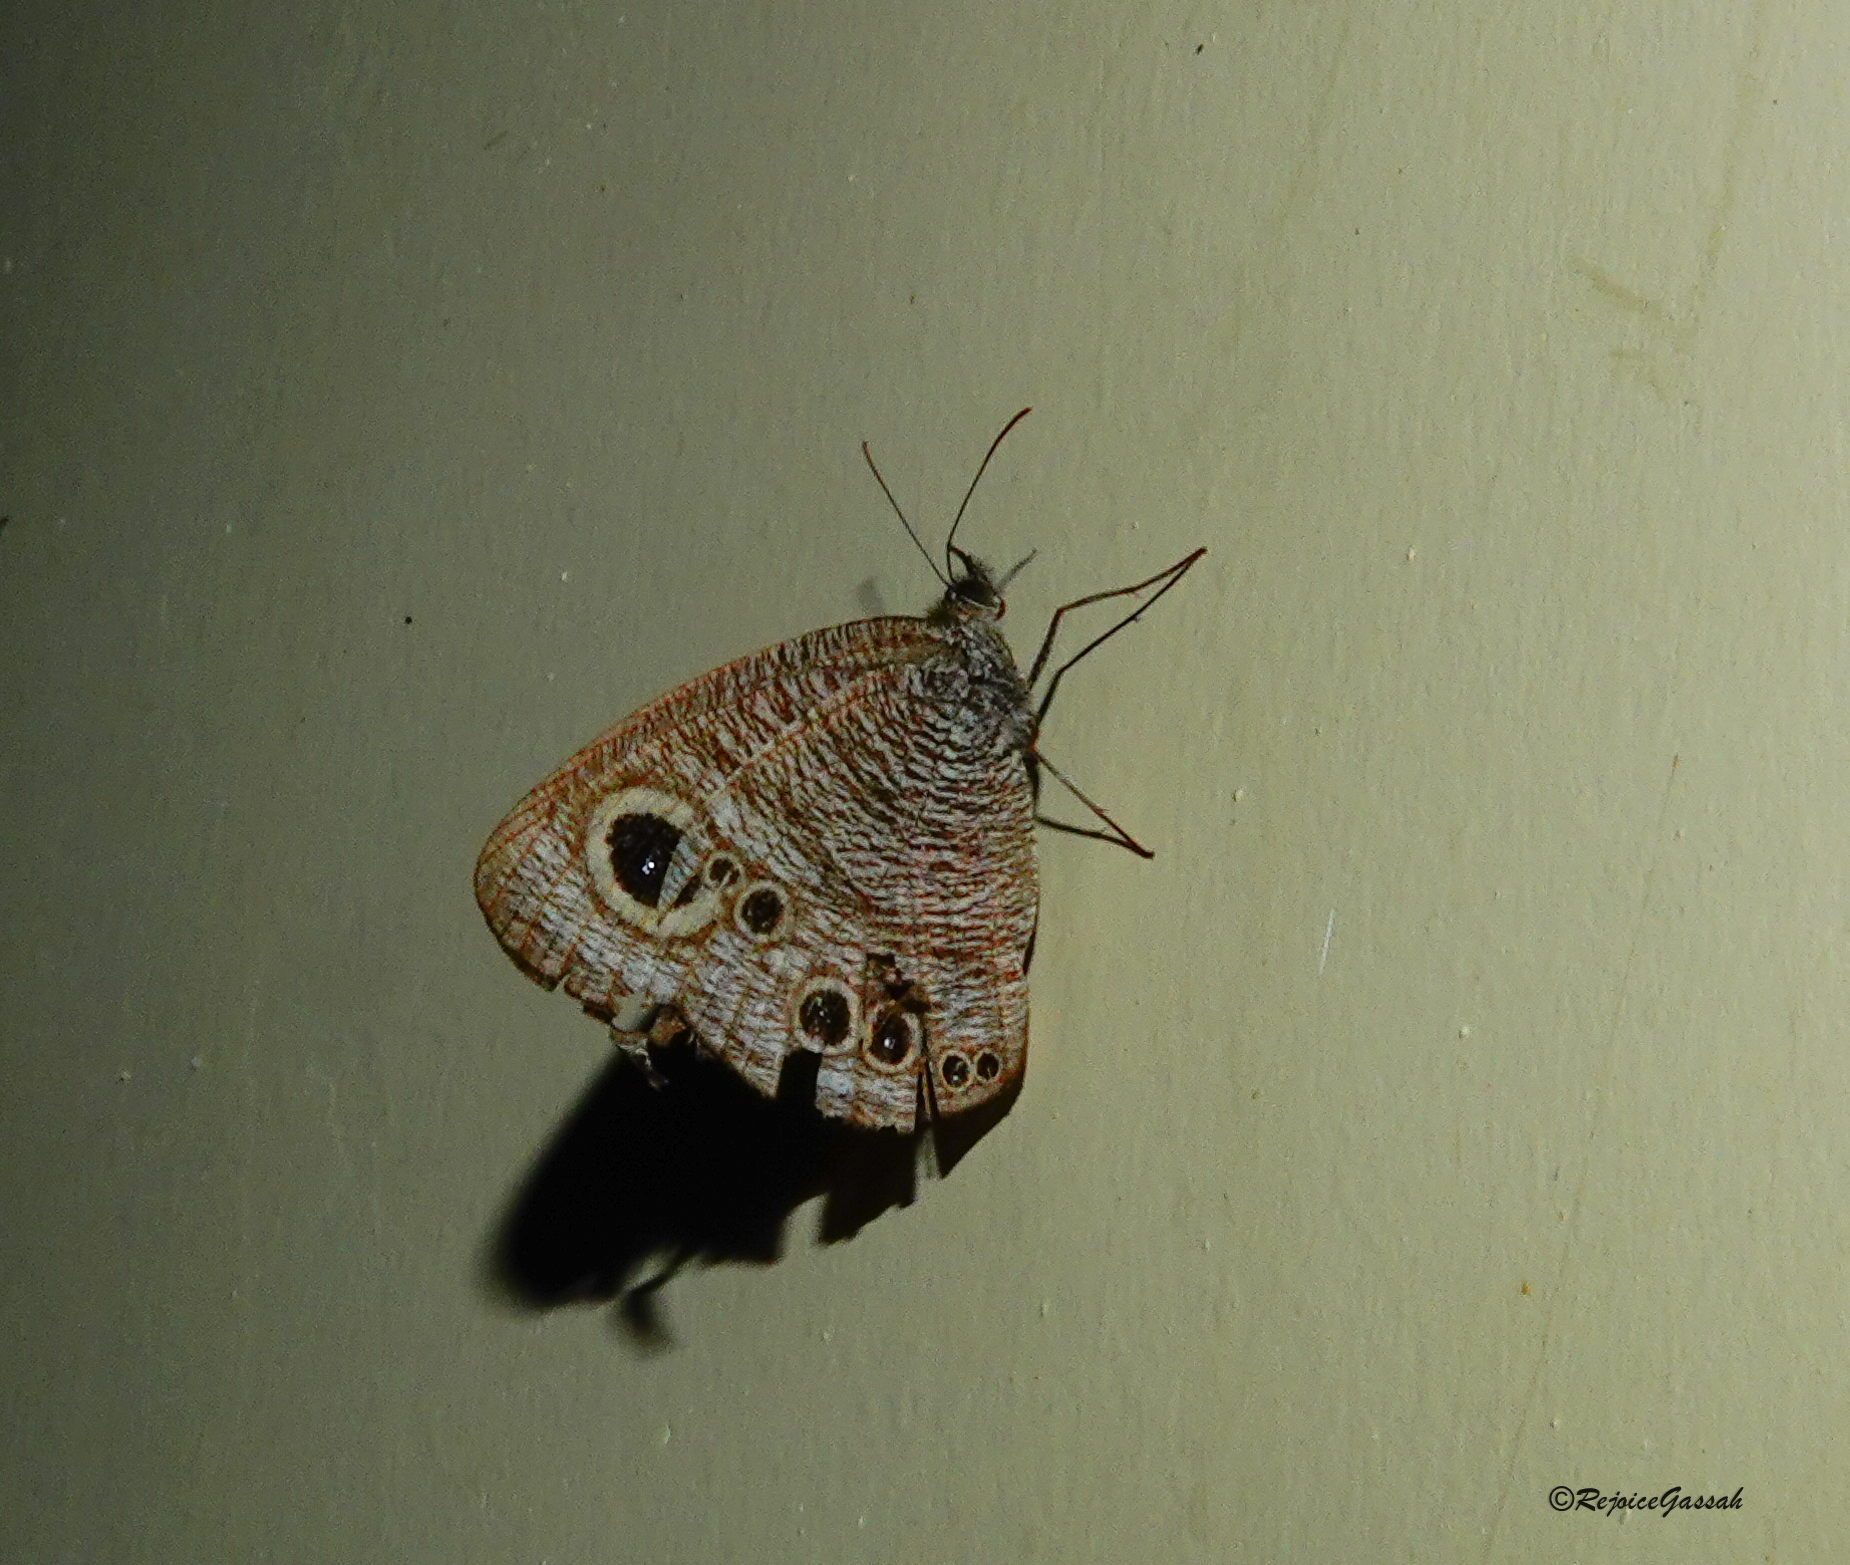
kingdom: Animalia
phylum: Arthropoda
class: Insecta
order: Lepidoptera
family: Nymphalidae
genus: Ypthima
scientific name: Ypthima baldus
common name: Common five-ring
